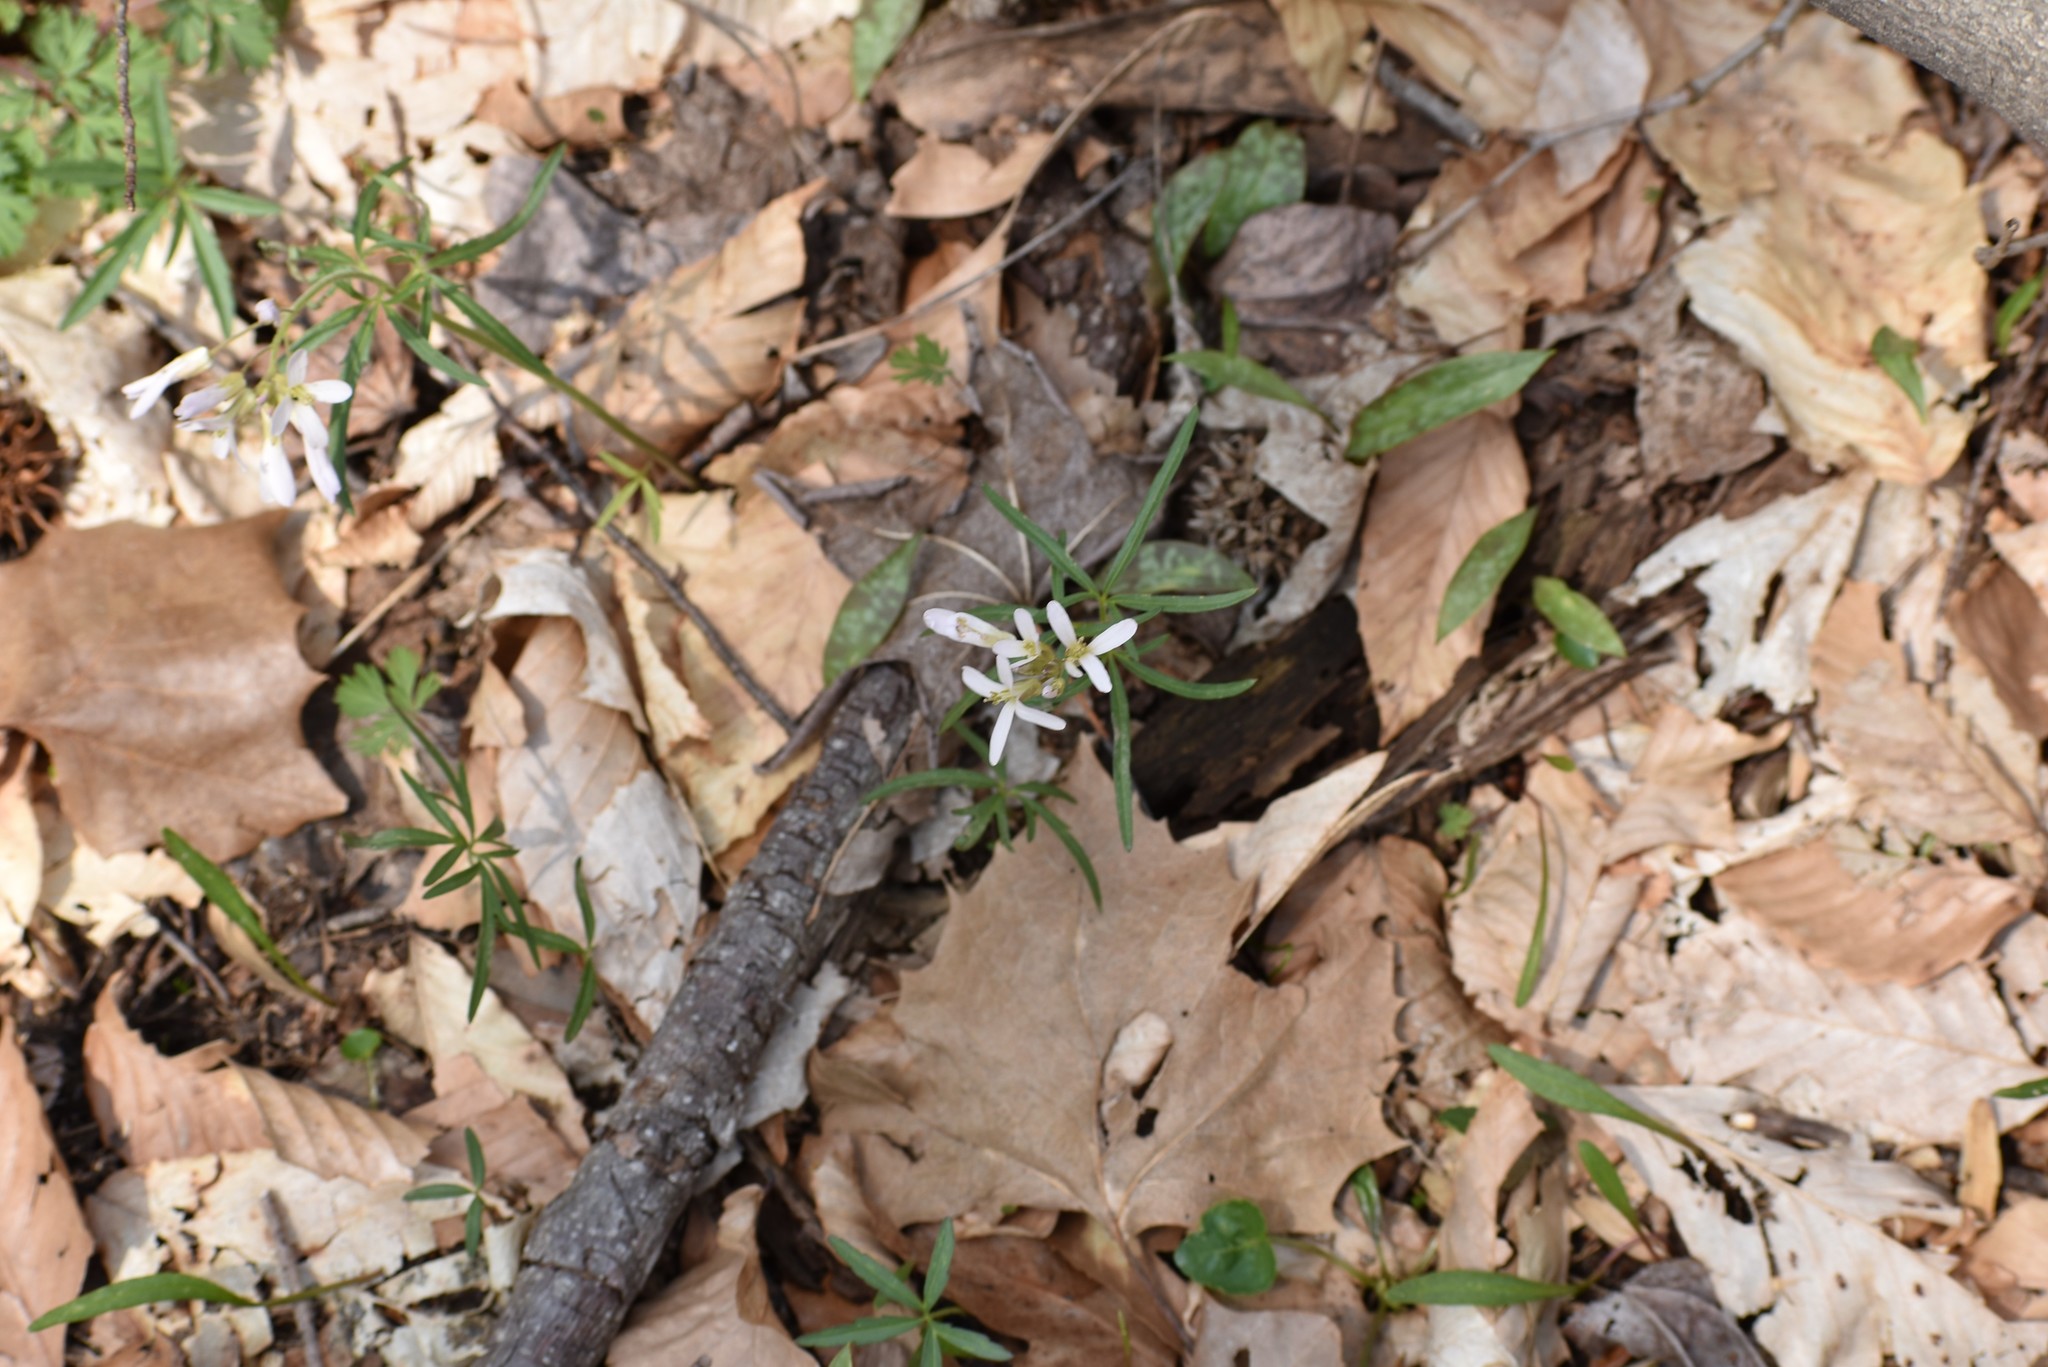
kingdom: Plantae
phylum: Tracheophyta
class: Magnoliopsida
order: Brassicales
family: Brassicaceae
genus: Cardamine
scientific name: Cardamine concatenata
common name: Cut-leaf toothcup
